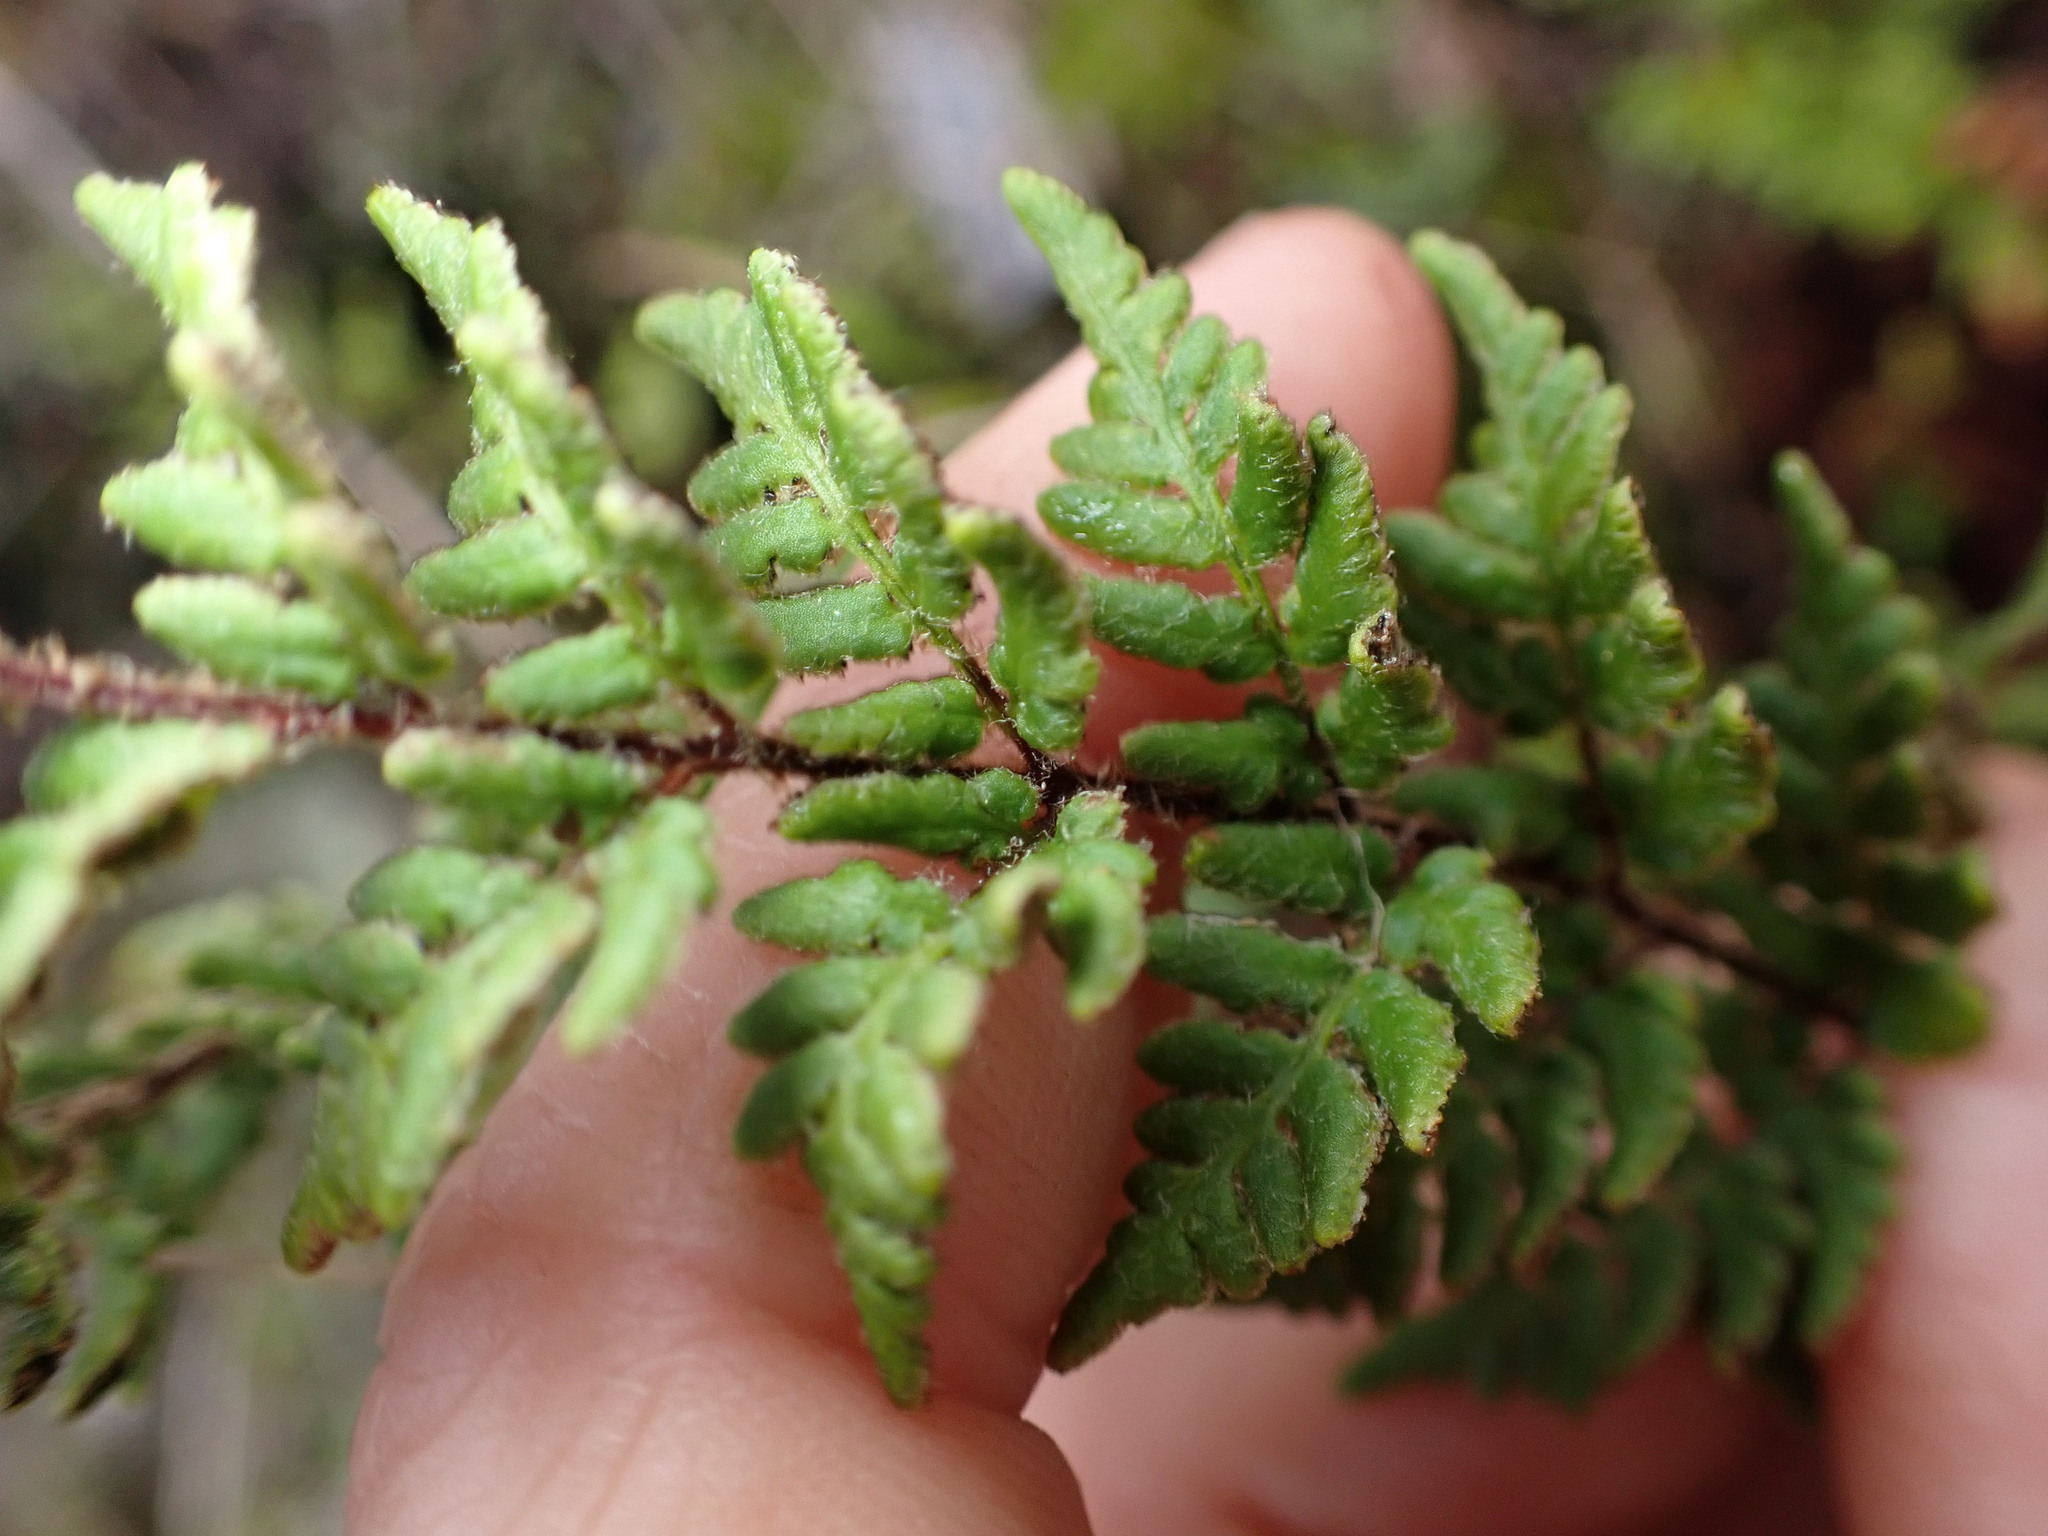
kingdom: Plantae
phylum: Tracheophyta
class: Polypodiopsida
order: Polypodiales
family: Pteridaceae
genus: Cheilanthes
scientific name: Cheilanthes sieberi
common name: Mulga fern
